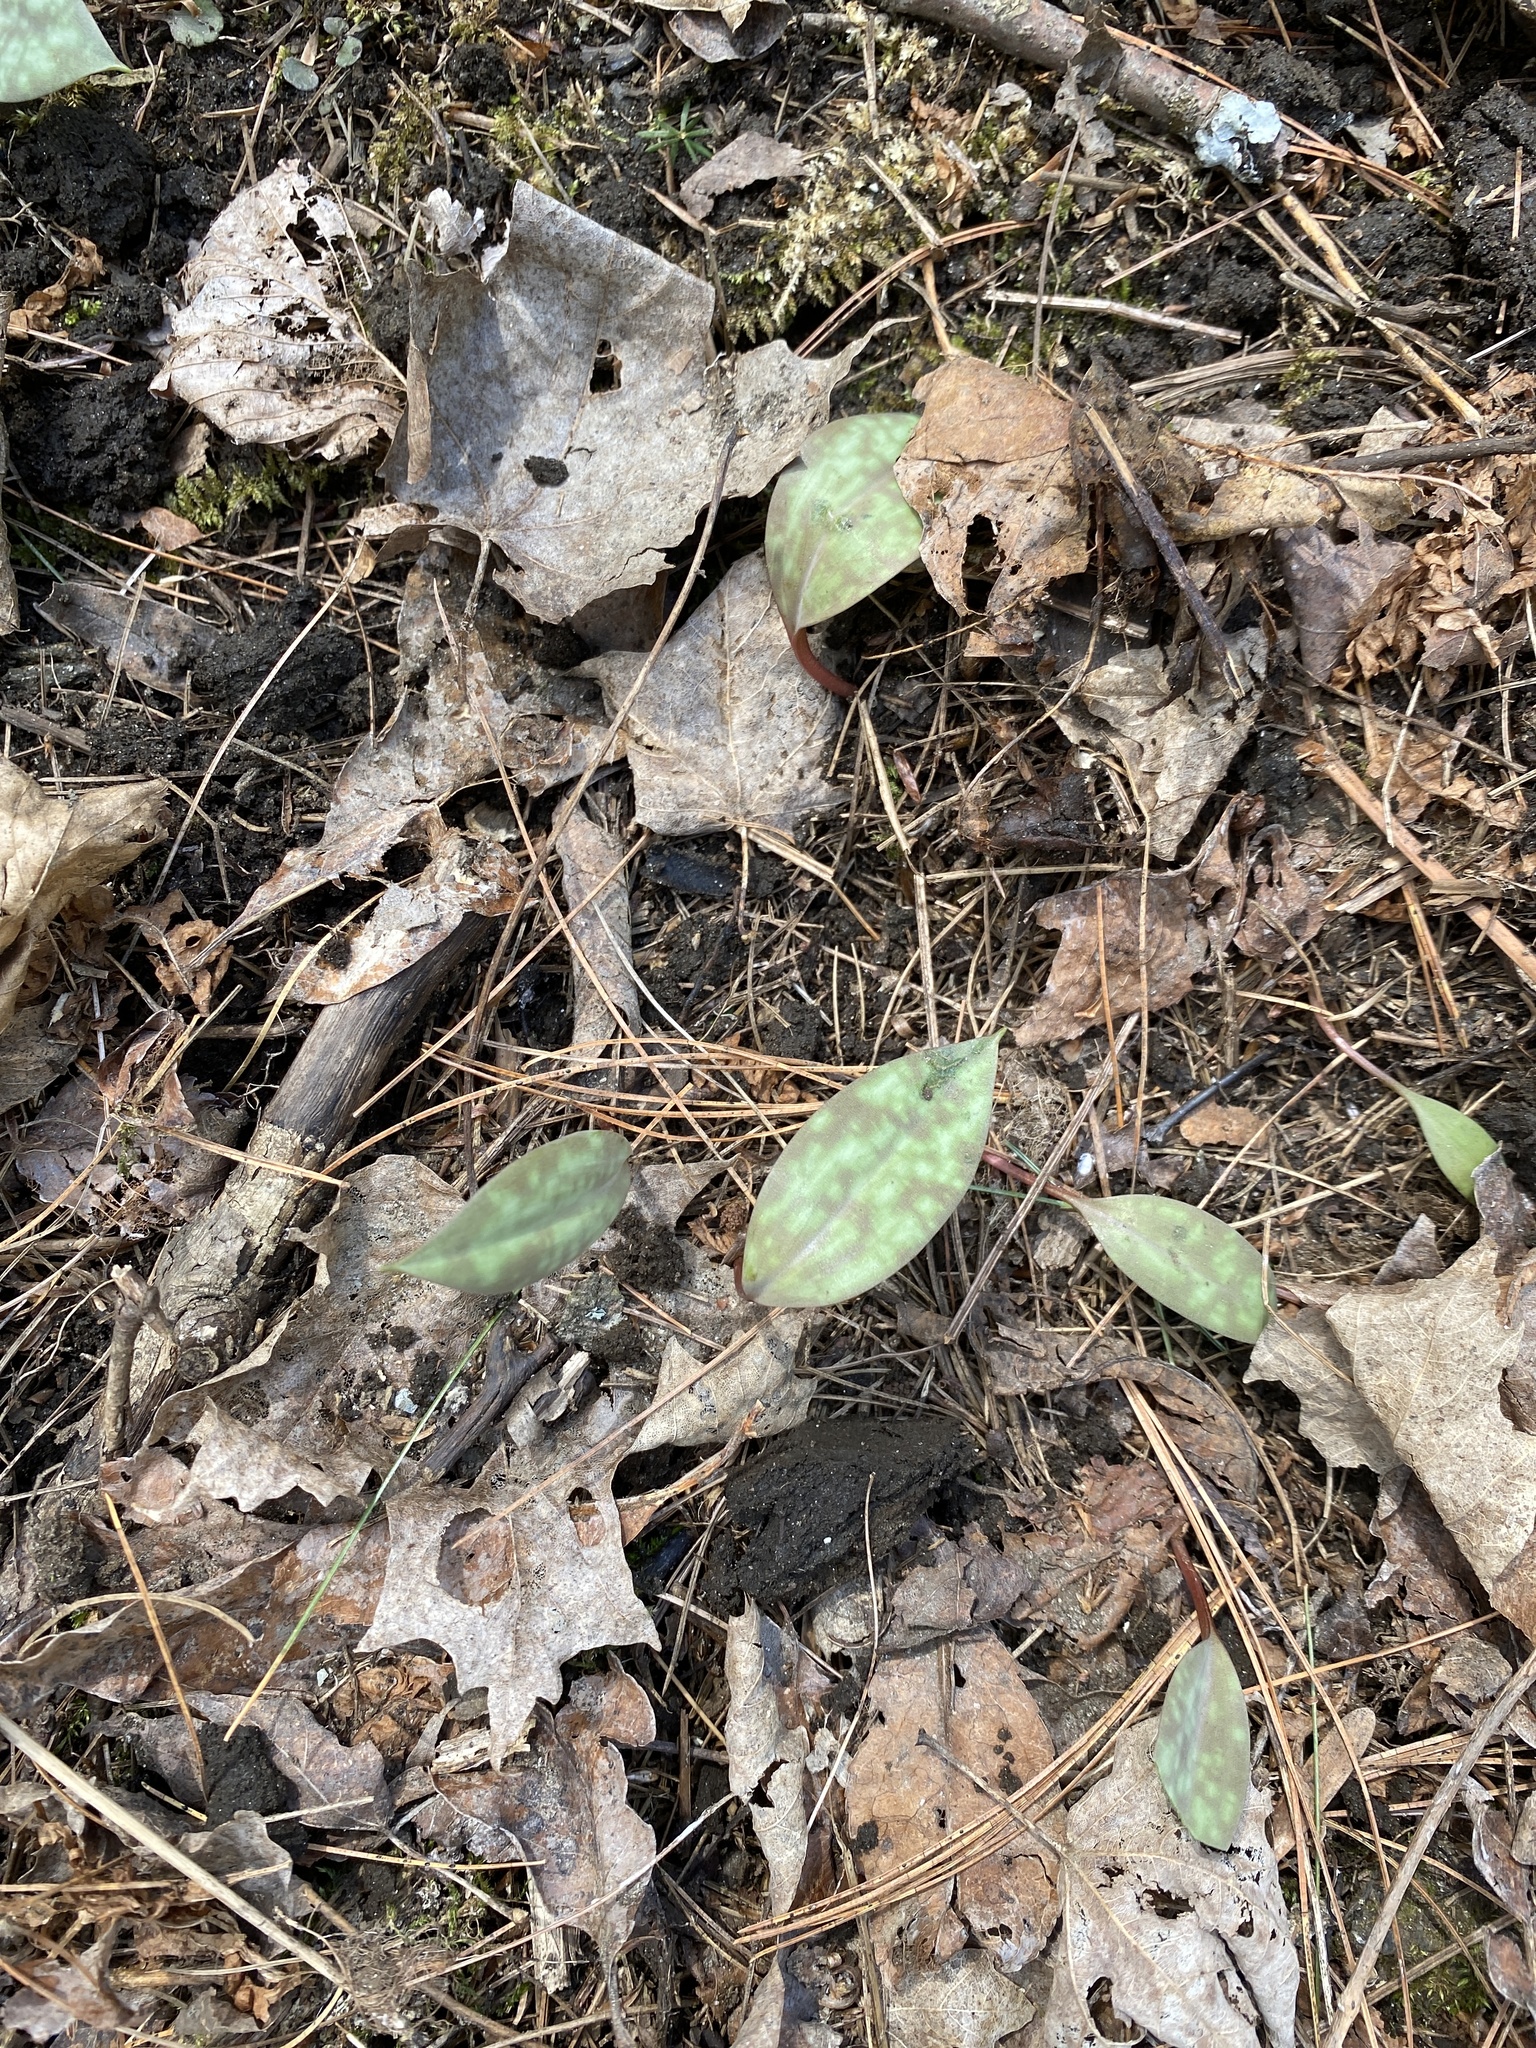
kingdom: Plantae
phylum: Tracheophyta
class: Liliopsida
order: Liliales
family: Liliaceae
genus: Erythronium
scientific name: Erythronium americanum
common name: Yellow adder's-tongue
